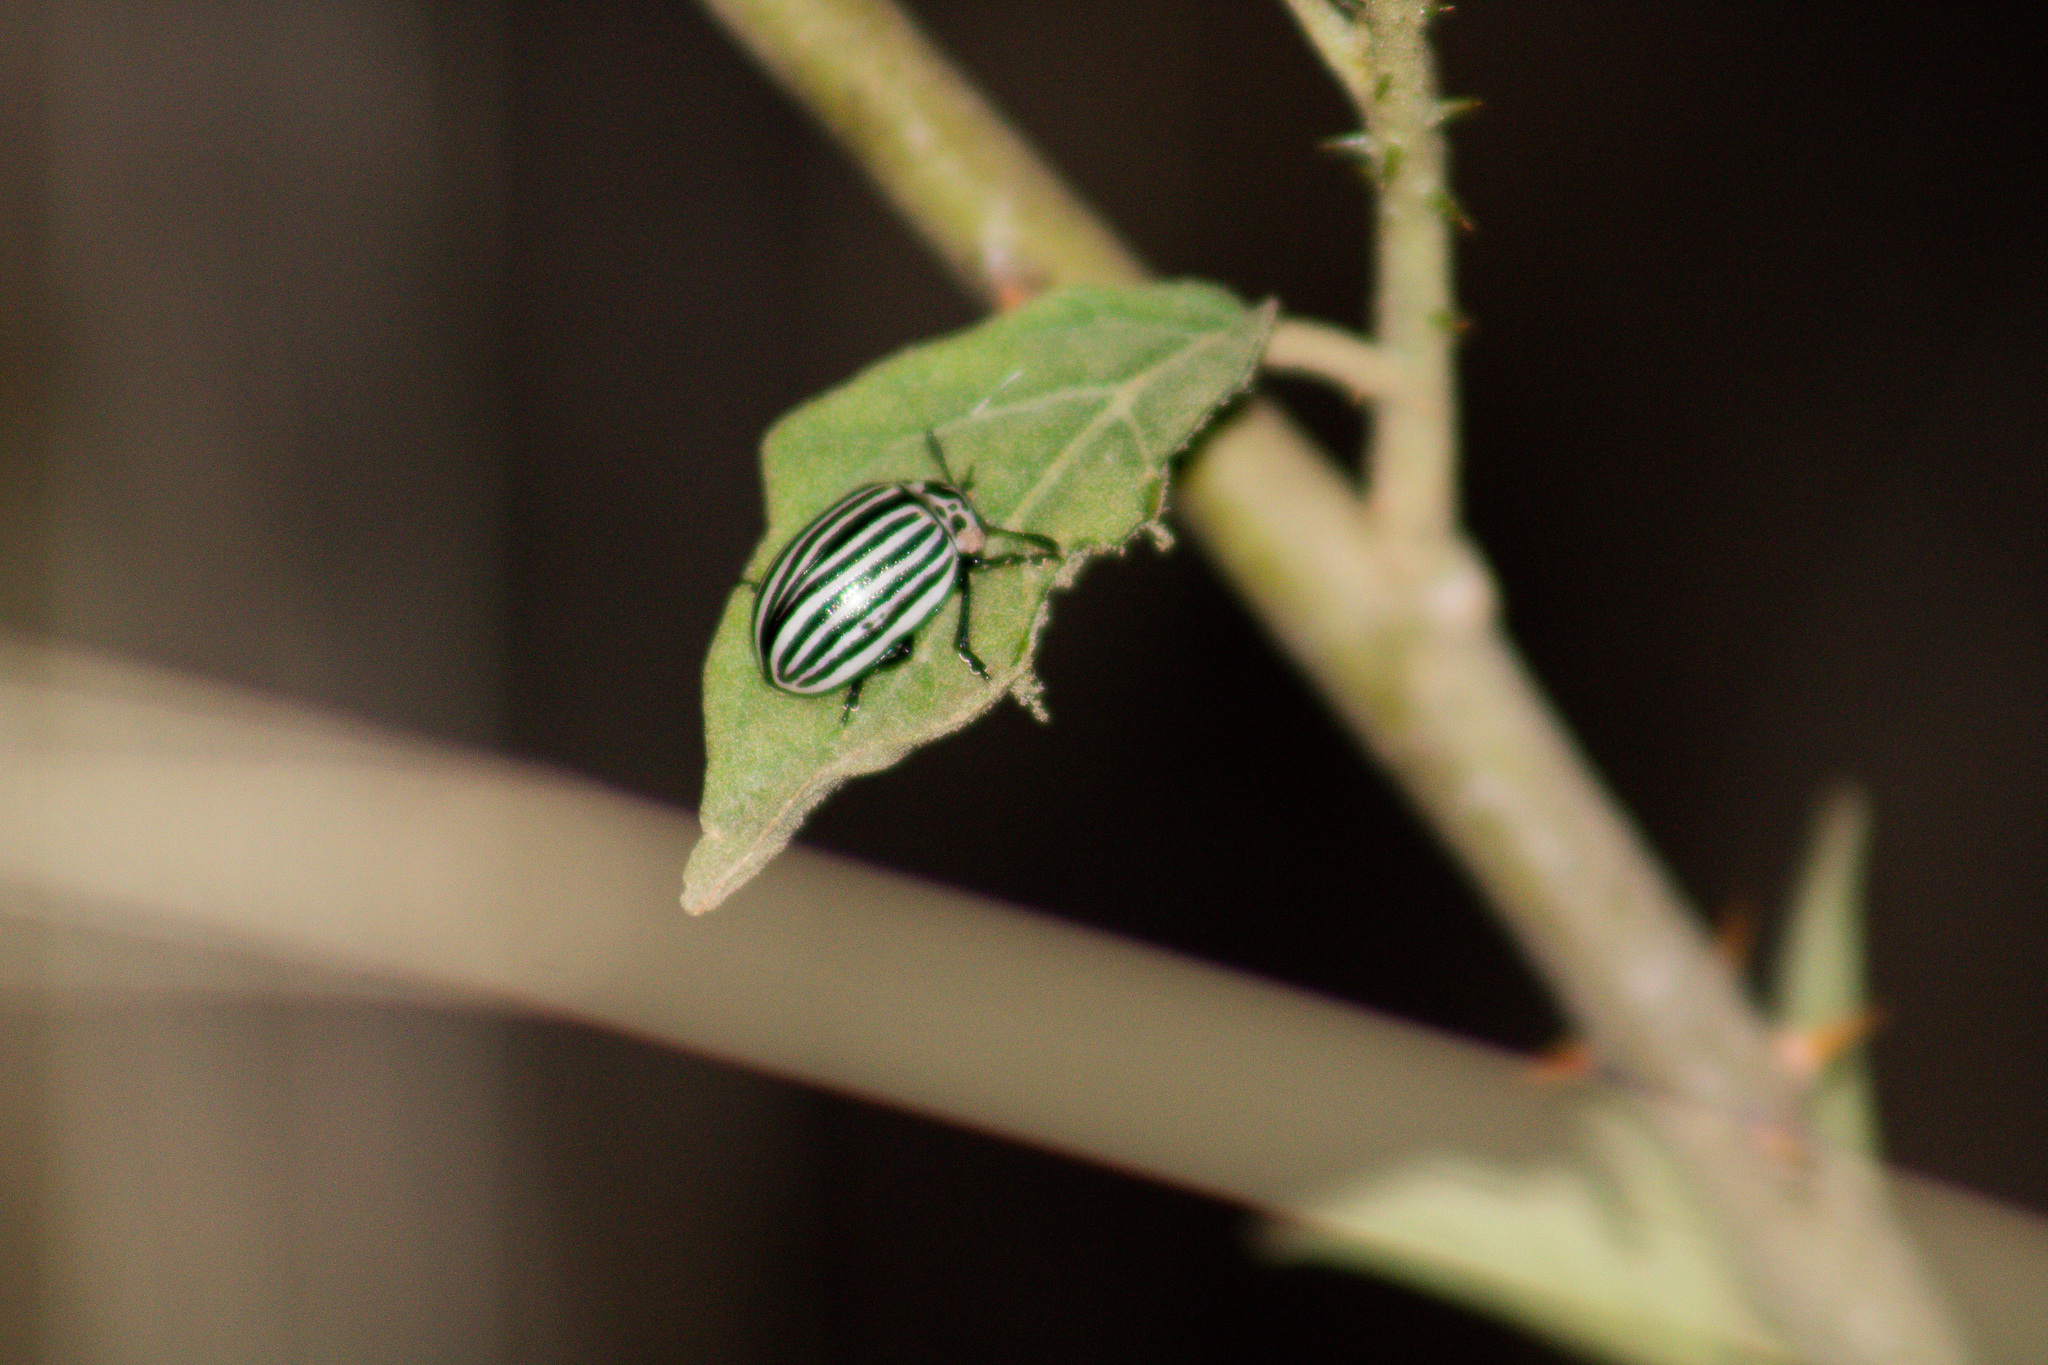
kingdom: Animalia
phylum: Arthropoda
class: Insecta
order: Coleoptera
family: Chrysomelidae
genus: Leptinotarsa
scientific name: Leptinotarsa
